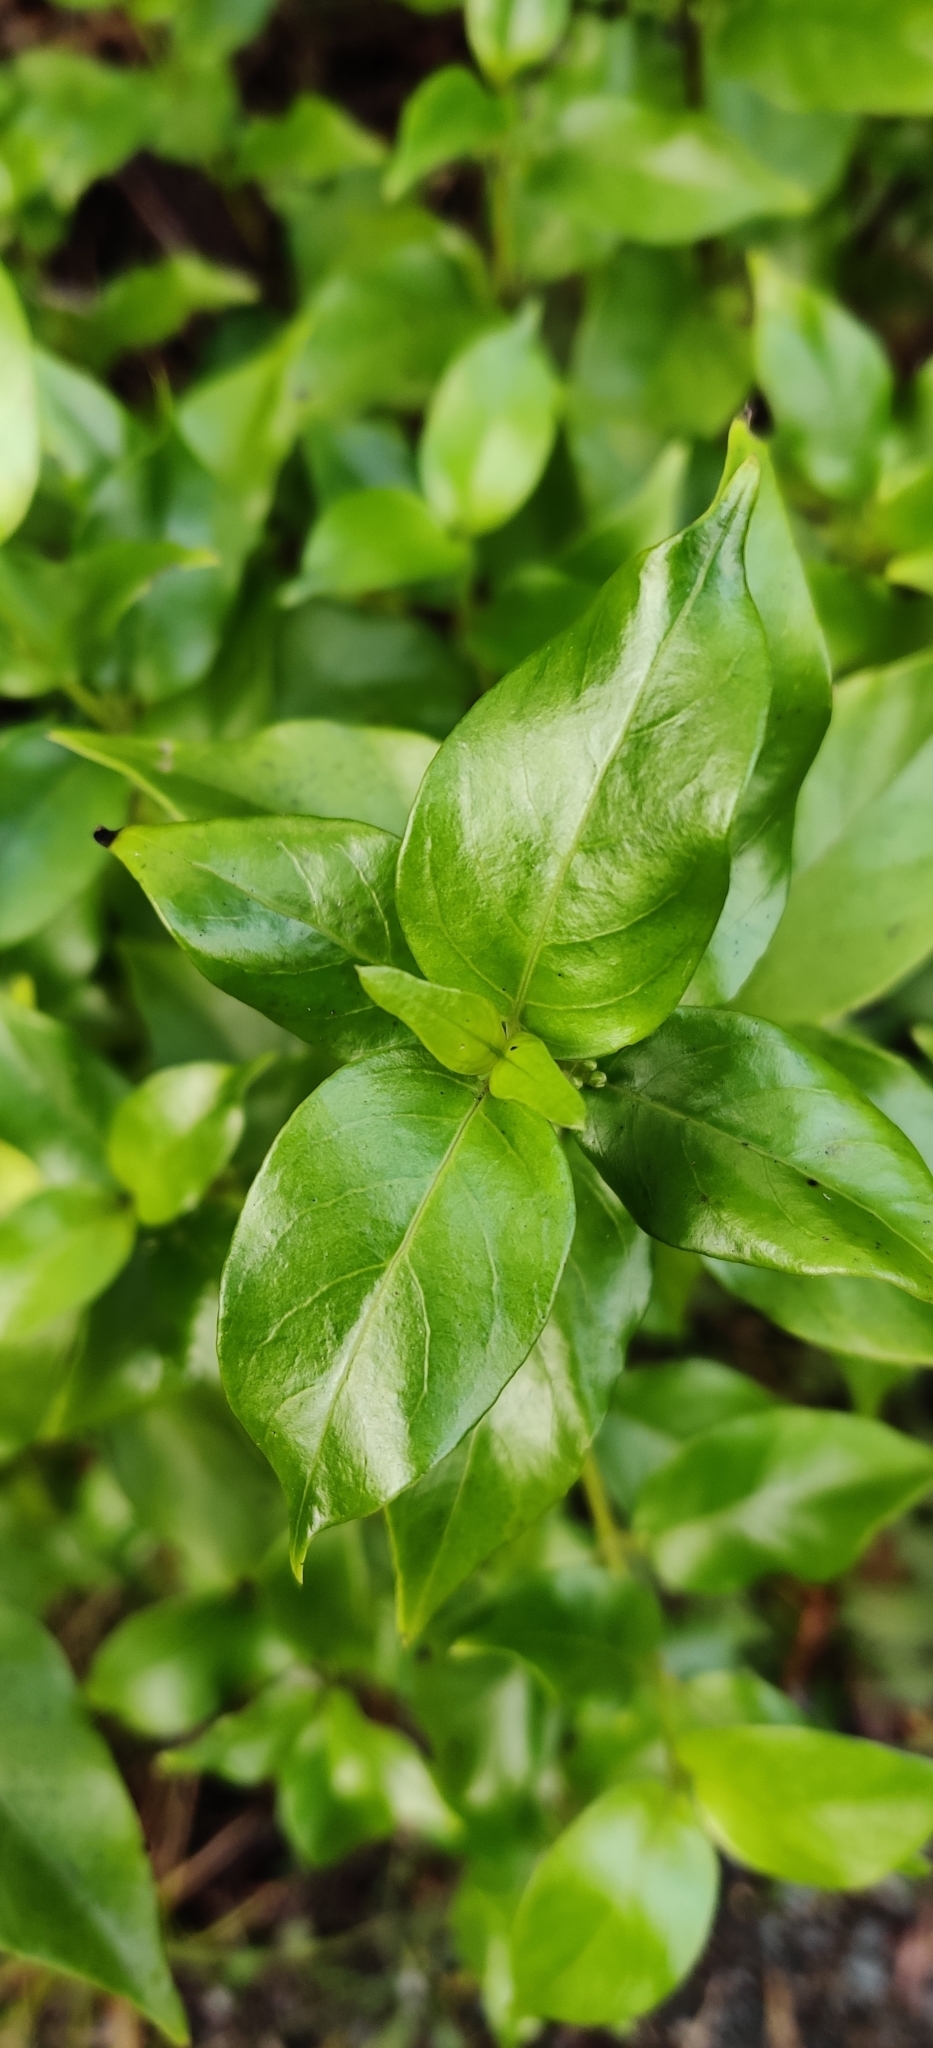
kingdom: Plantae
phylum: Tracheophyta
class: Magnoliopsida
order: Gentianales
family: Loganiaceae
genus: Geniostoma
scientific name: Geniostoma ligustrifolium
